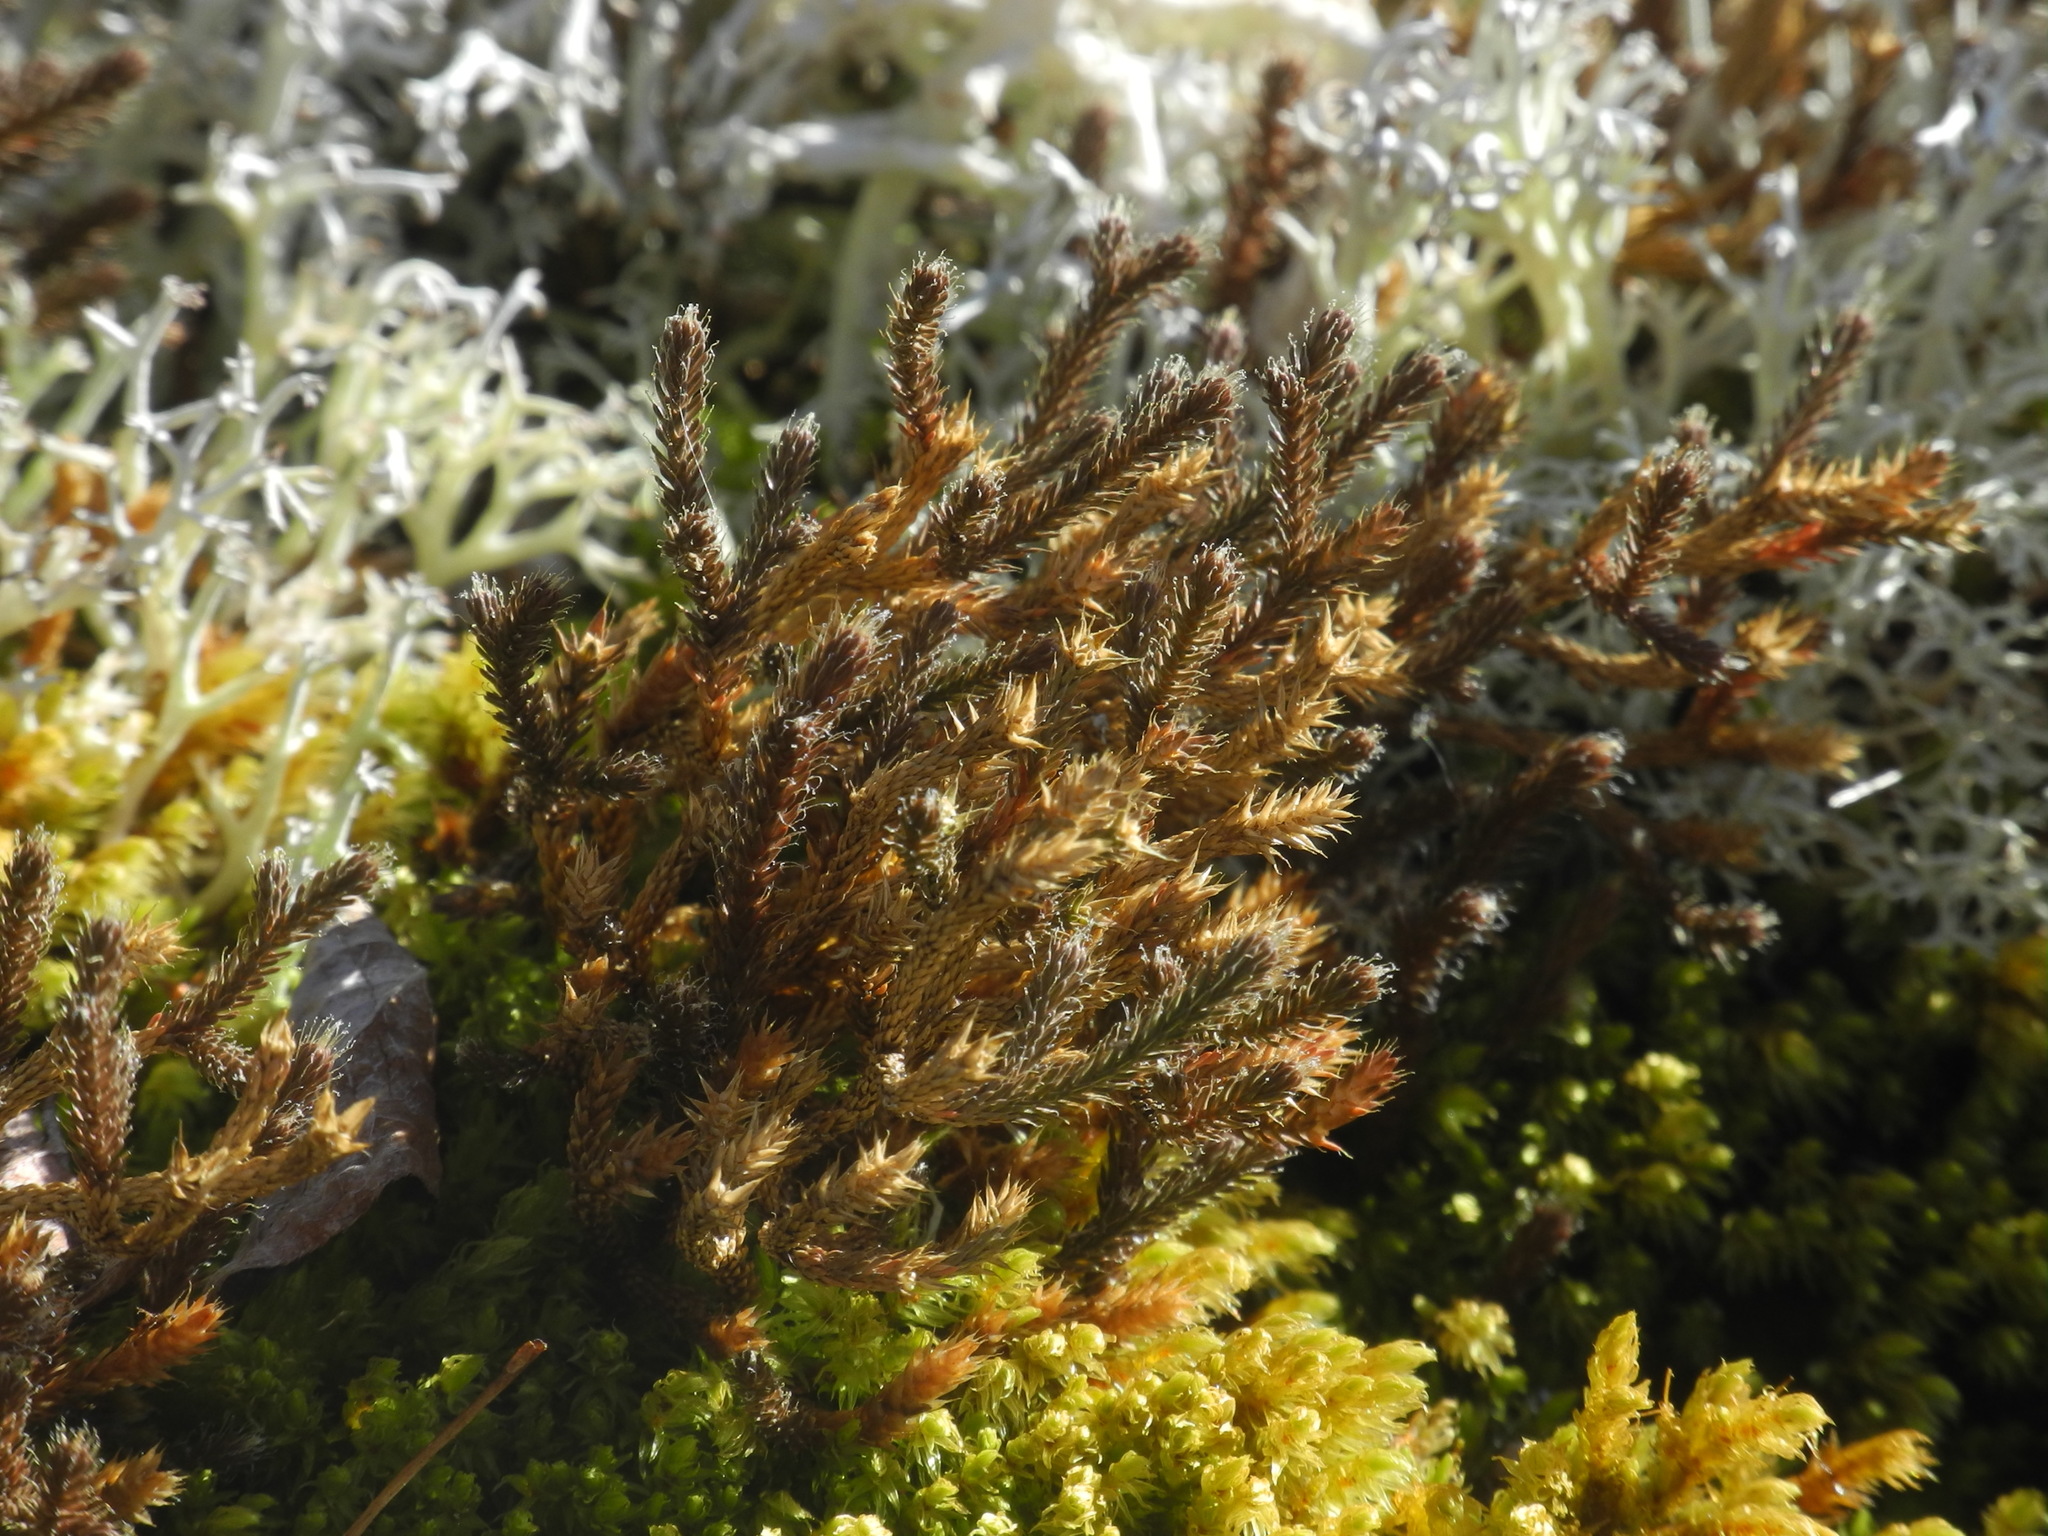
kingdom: Plantae
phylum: Tracheophyta
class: Lycopodiopsida
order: Selaginellales
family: Selaginellaceae
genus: Selaginella
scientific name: Selaginella tortipila
